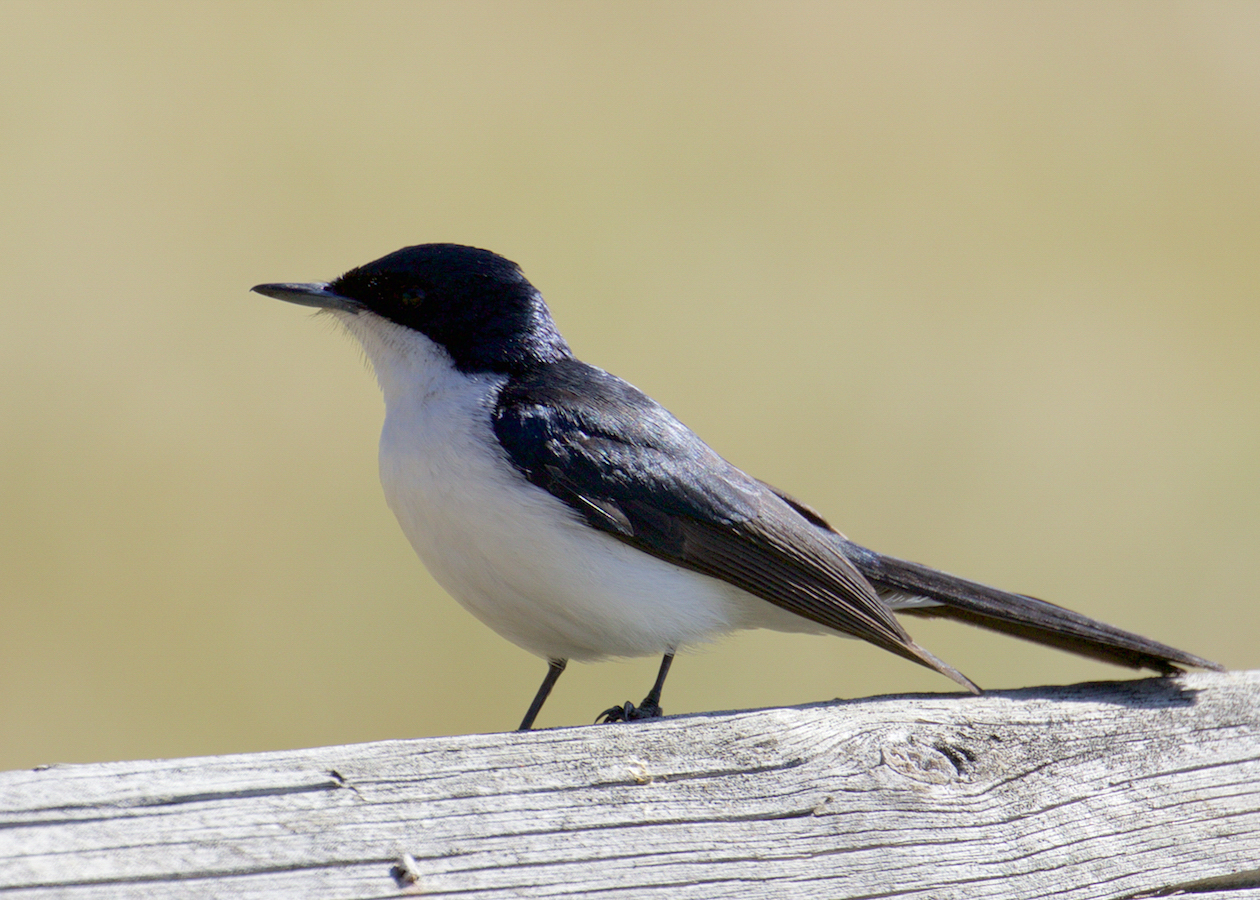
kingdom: Animalia
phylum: Chordata
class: Aves
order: Passeriformes
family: Monarchidae
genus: Myiagra
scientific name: Myiagra inquieta
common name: Restless flycatcher
